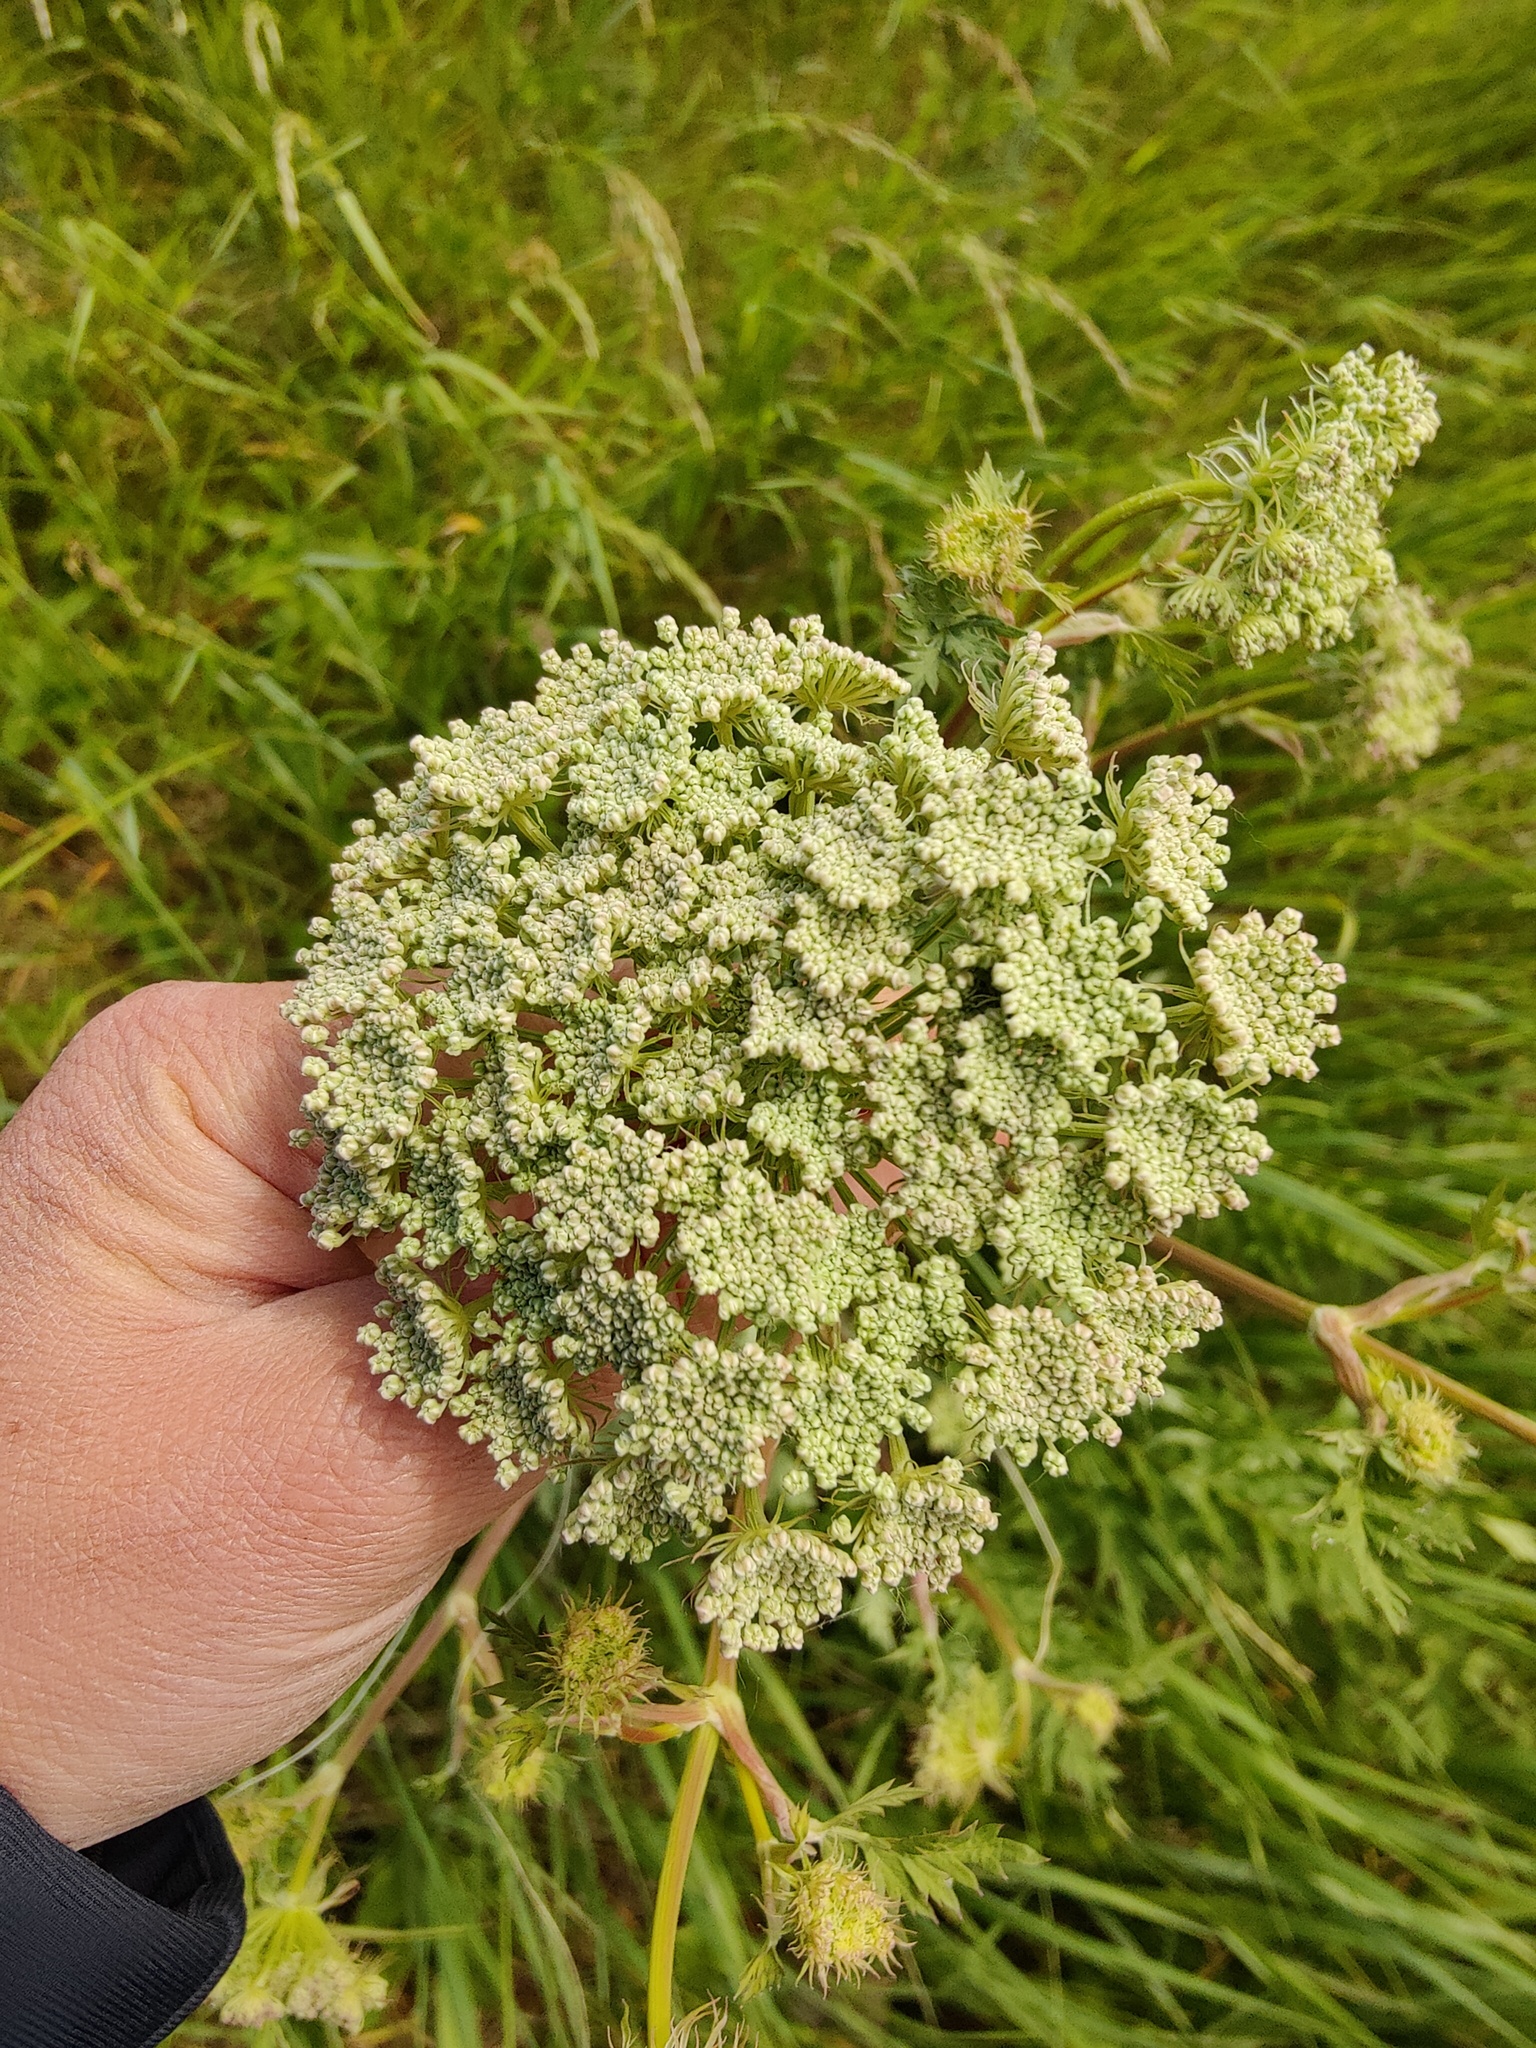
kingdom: Plantae
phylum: Tracheophyta
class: Magnoliopsida
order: Apiales
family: Apiaceae
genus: Seseli
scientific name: Seseli libanotis
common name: Mooncarrot
